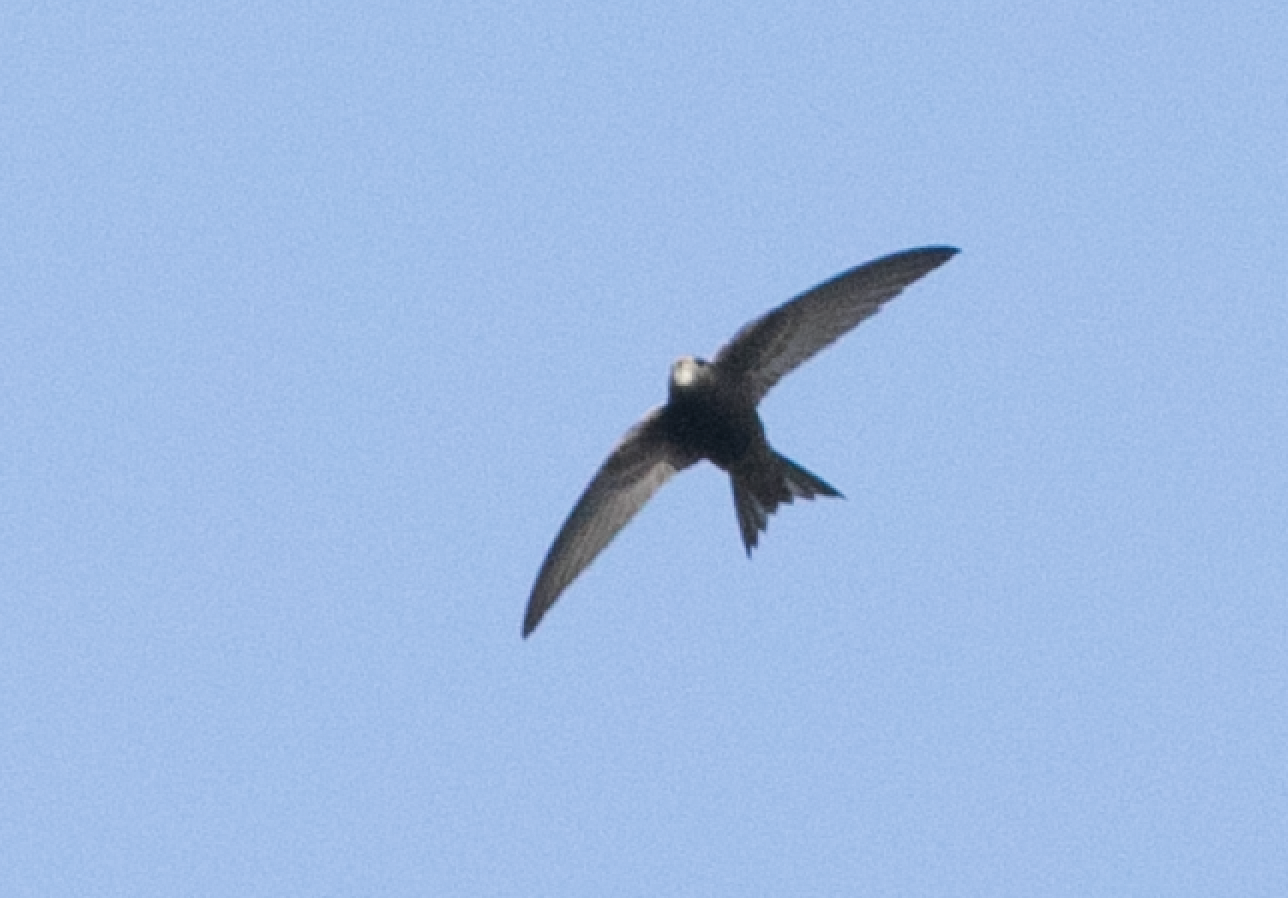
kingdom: Animalia
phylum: Chordata
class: Aves
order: Apodiformes
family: Apodidae
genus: Apus
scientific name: Apus apus
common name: Common swift
